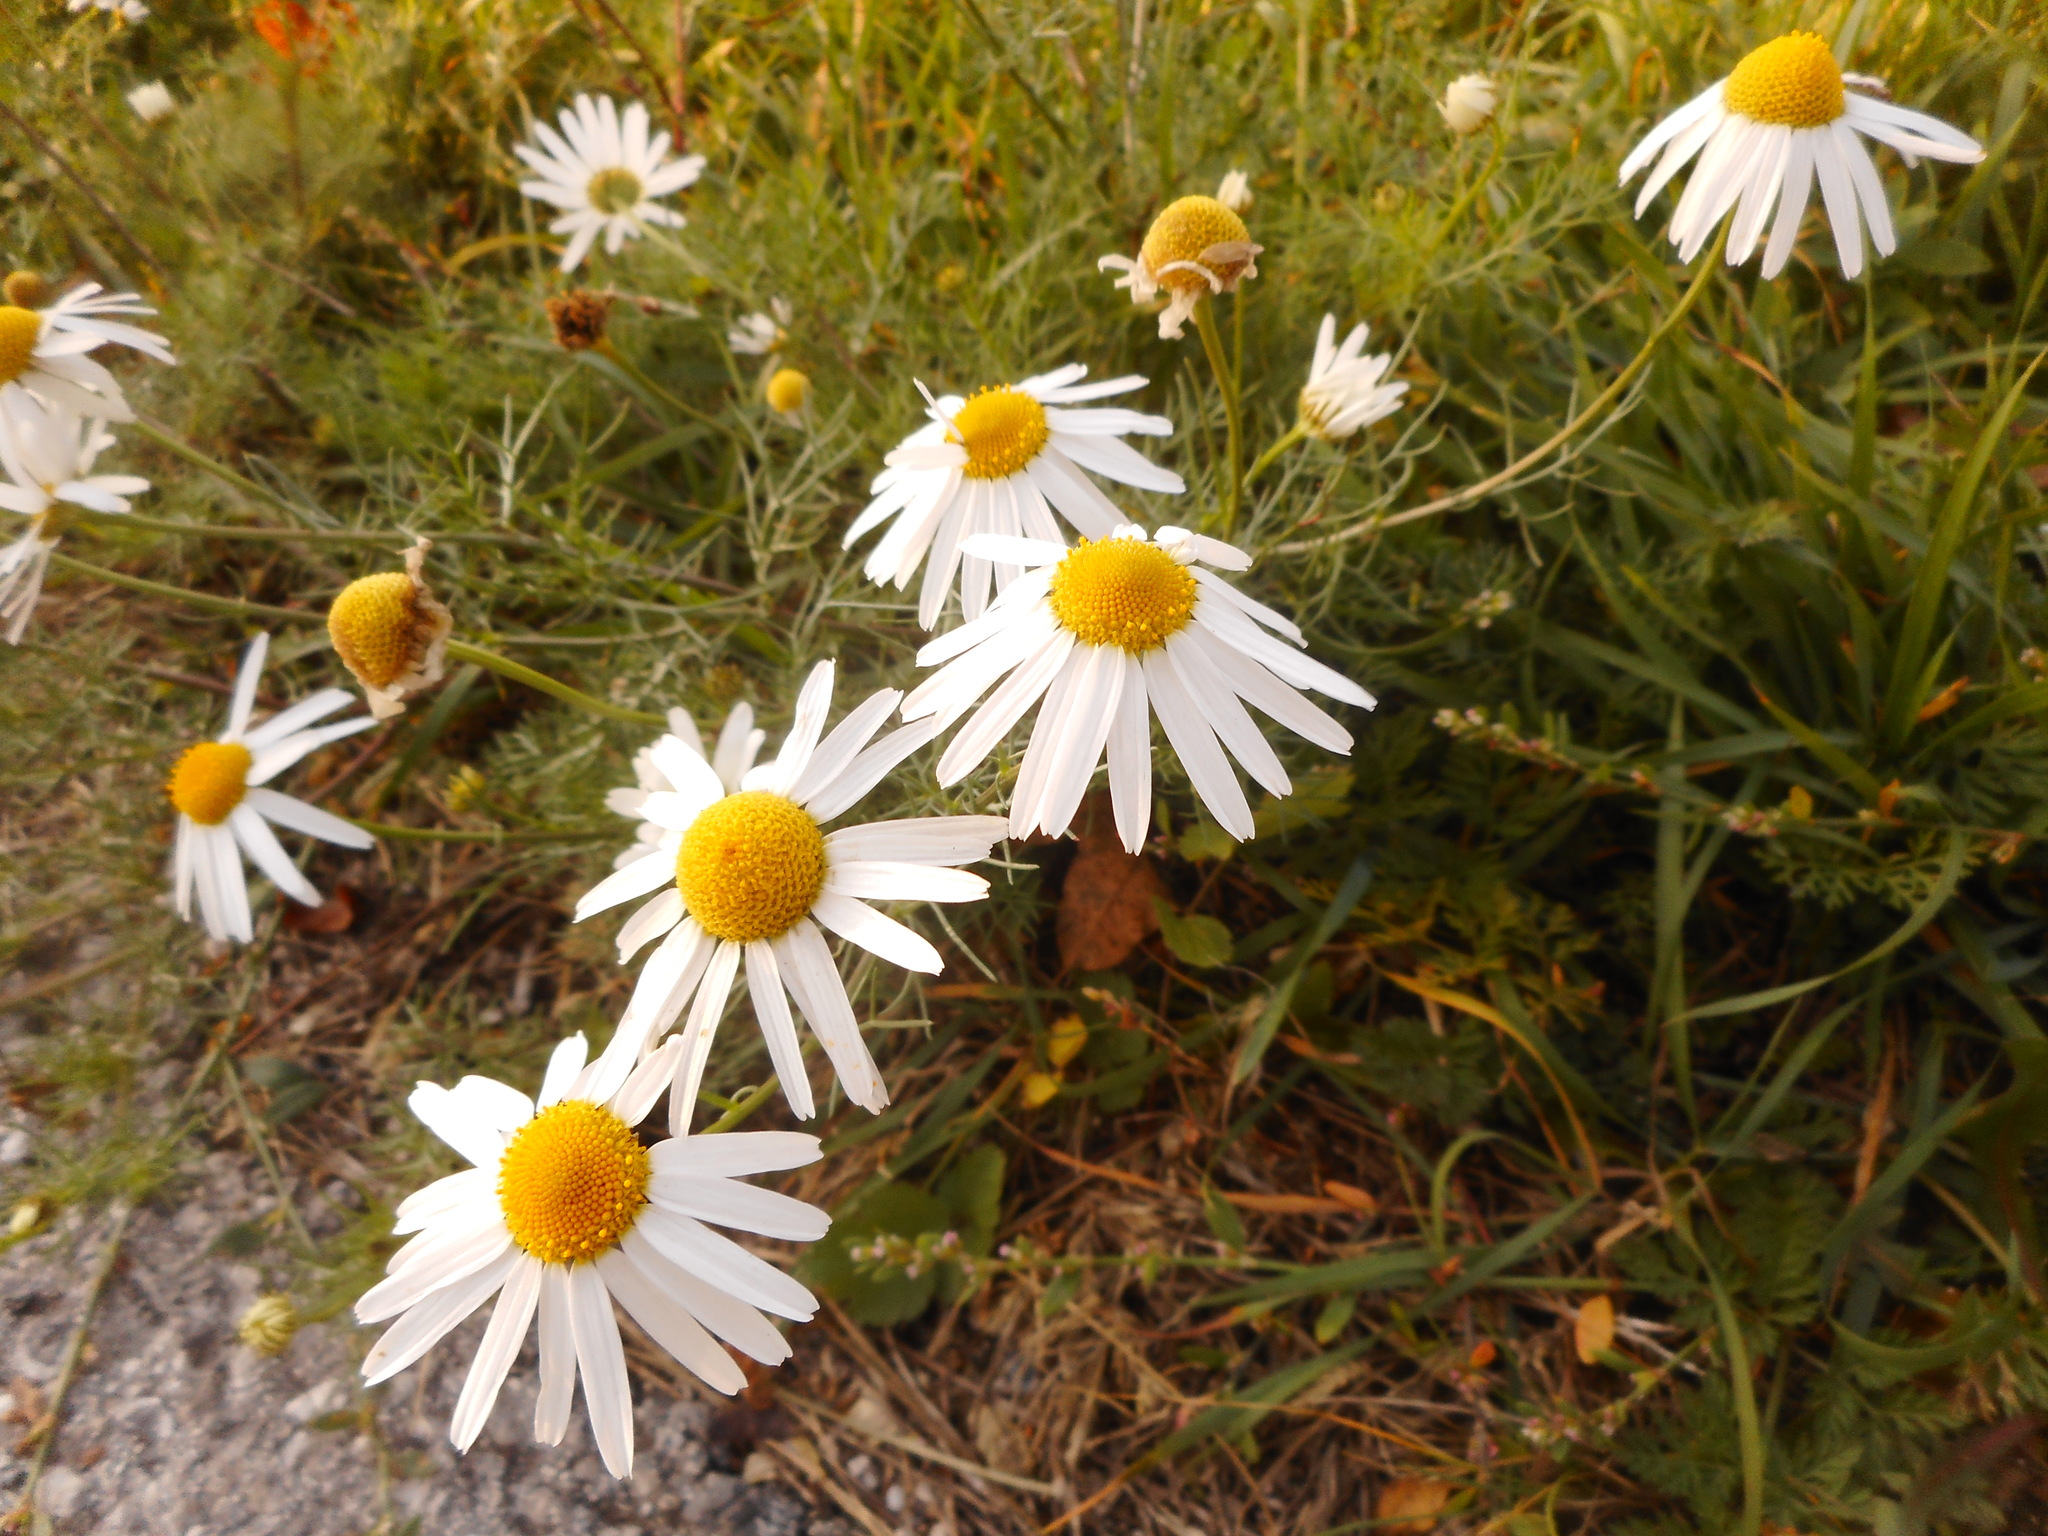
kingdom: Plantae
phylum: Tracheophyta
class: Magnoliopsida
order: Asterales
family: Asteraceae
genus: Tripleurospermum
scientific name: Tripleurospermum inodorum
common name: Scentless mayweed
